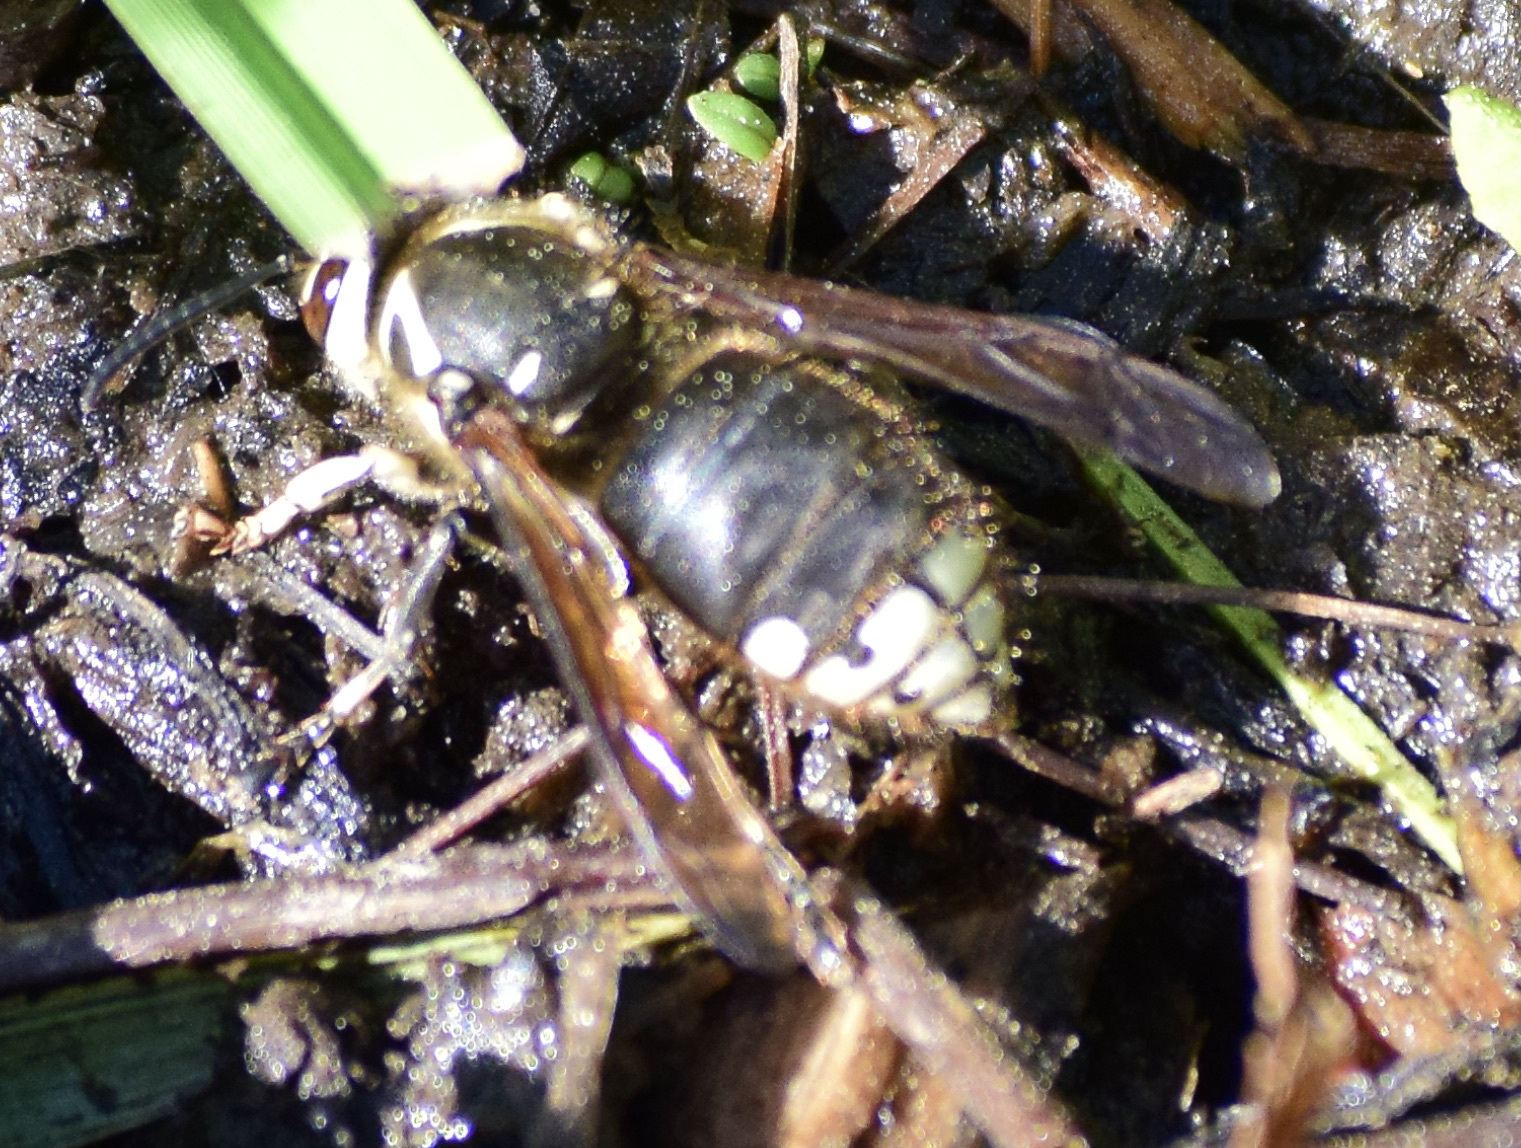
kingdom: Animalia
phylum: Arthropoda
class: Insecta
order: Hymenoptera
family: Vespidae
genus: Dolichovespula
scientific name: Dolichovespula maculata
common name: Bald-faced hornet
